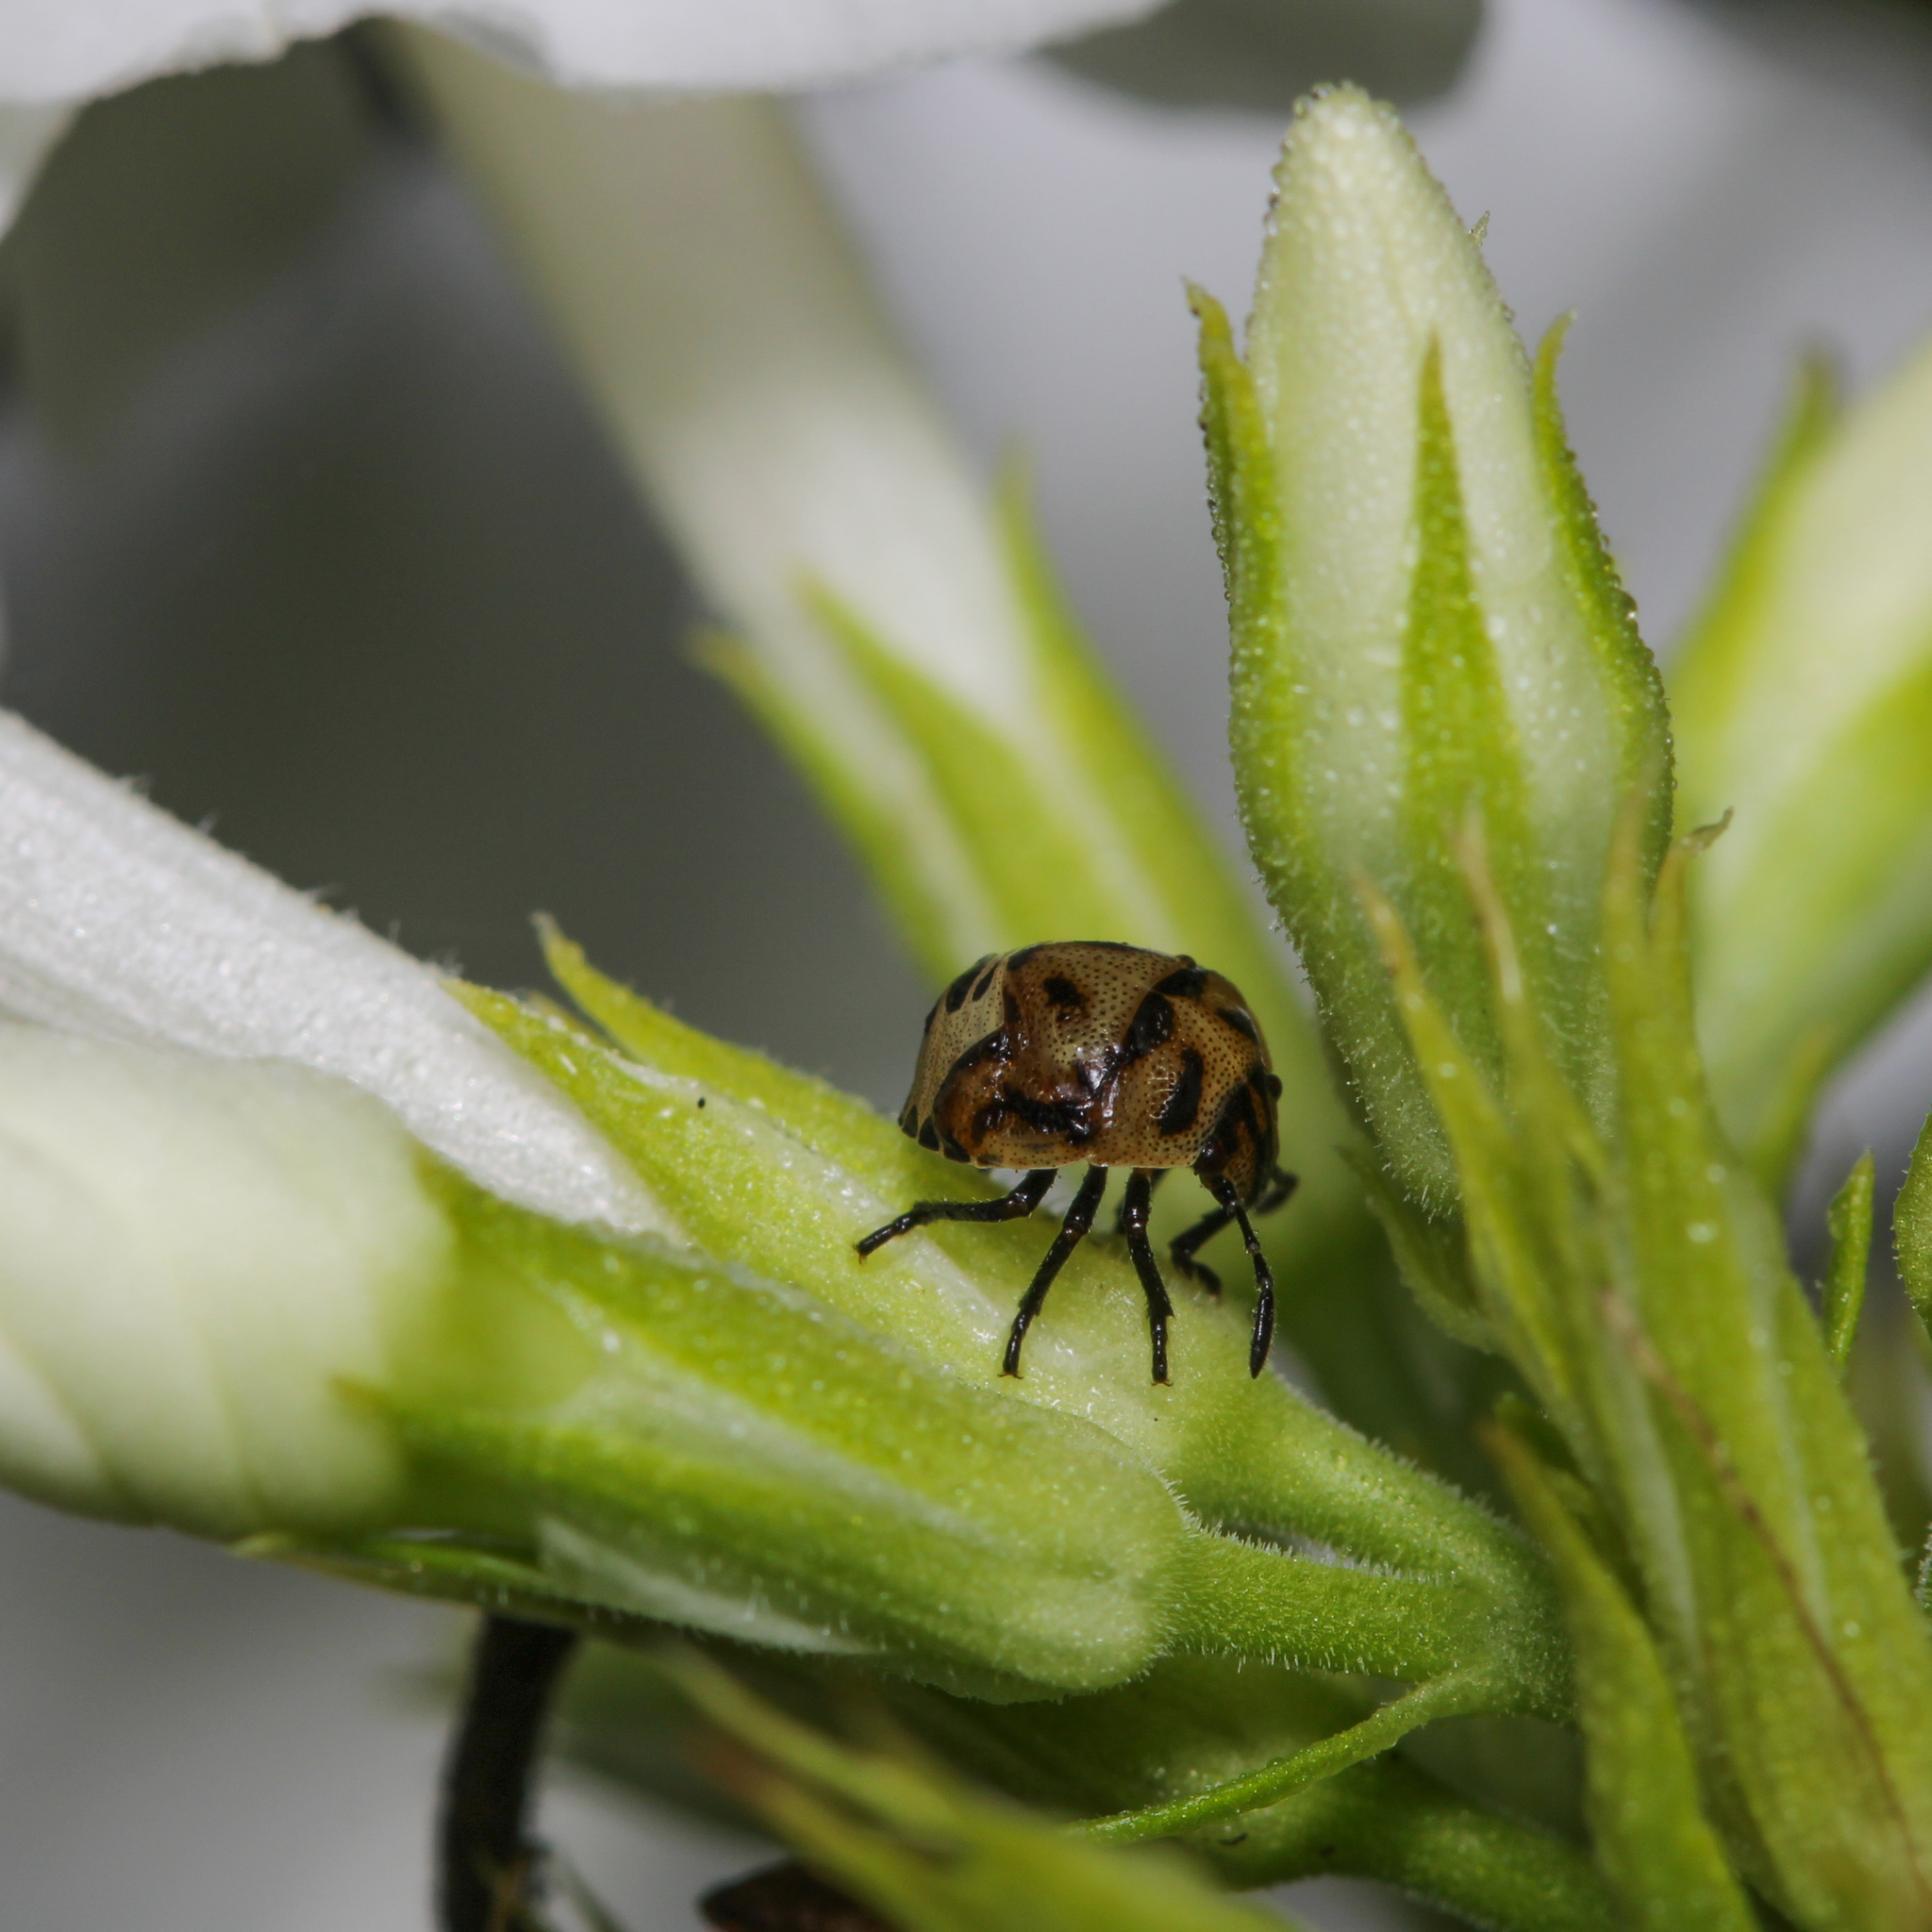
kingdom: Animalia
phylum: Arthropoda
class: Insecta
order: Hemiptera
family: Pentatomidae
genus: Cosmopepla
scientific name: Cosmopepla lintneriana
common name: Twice-stabbed stink bug
